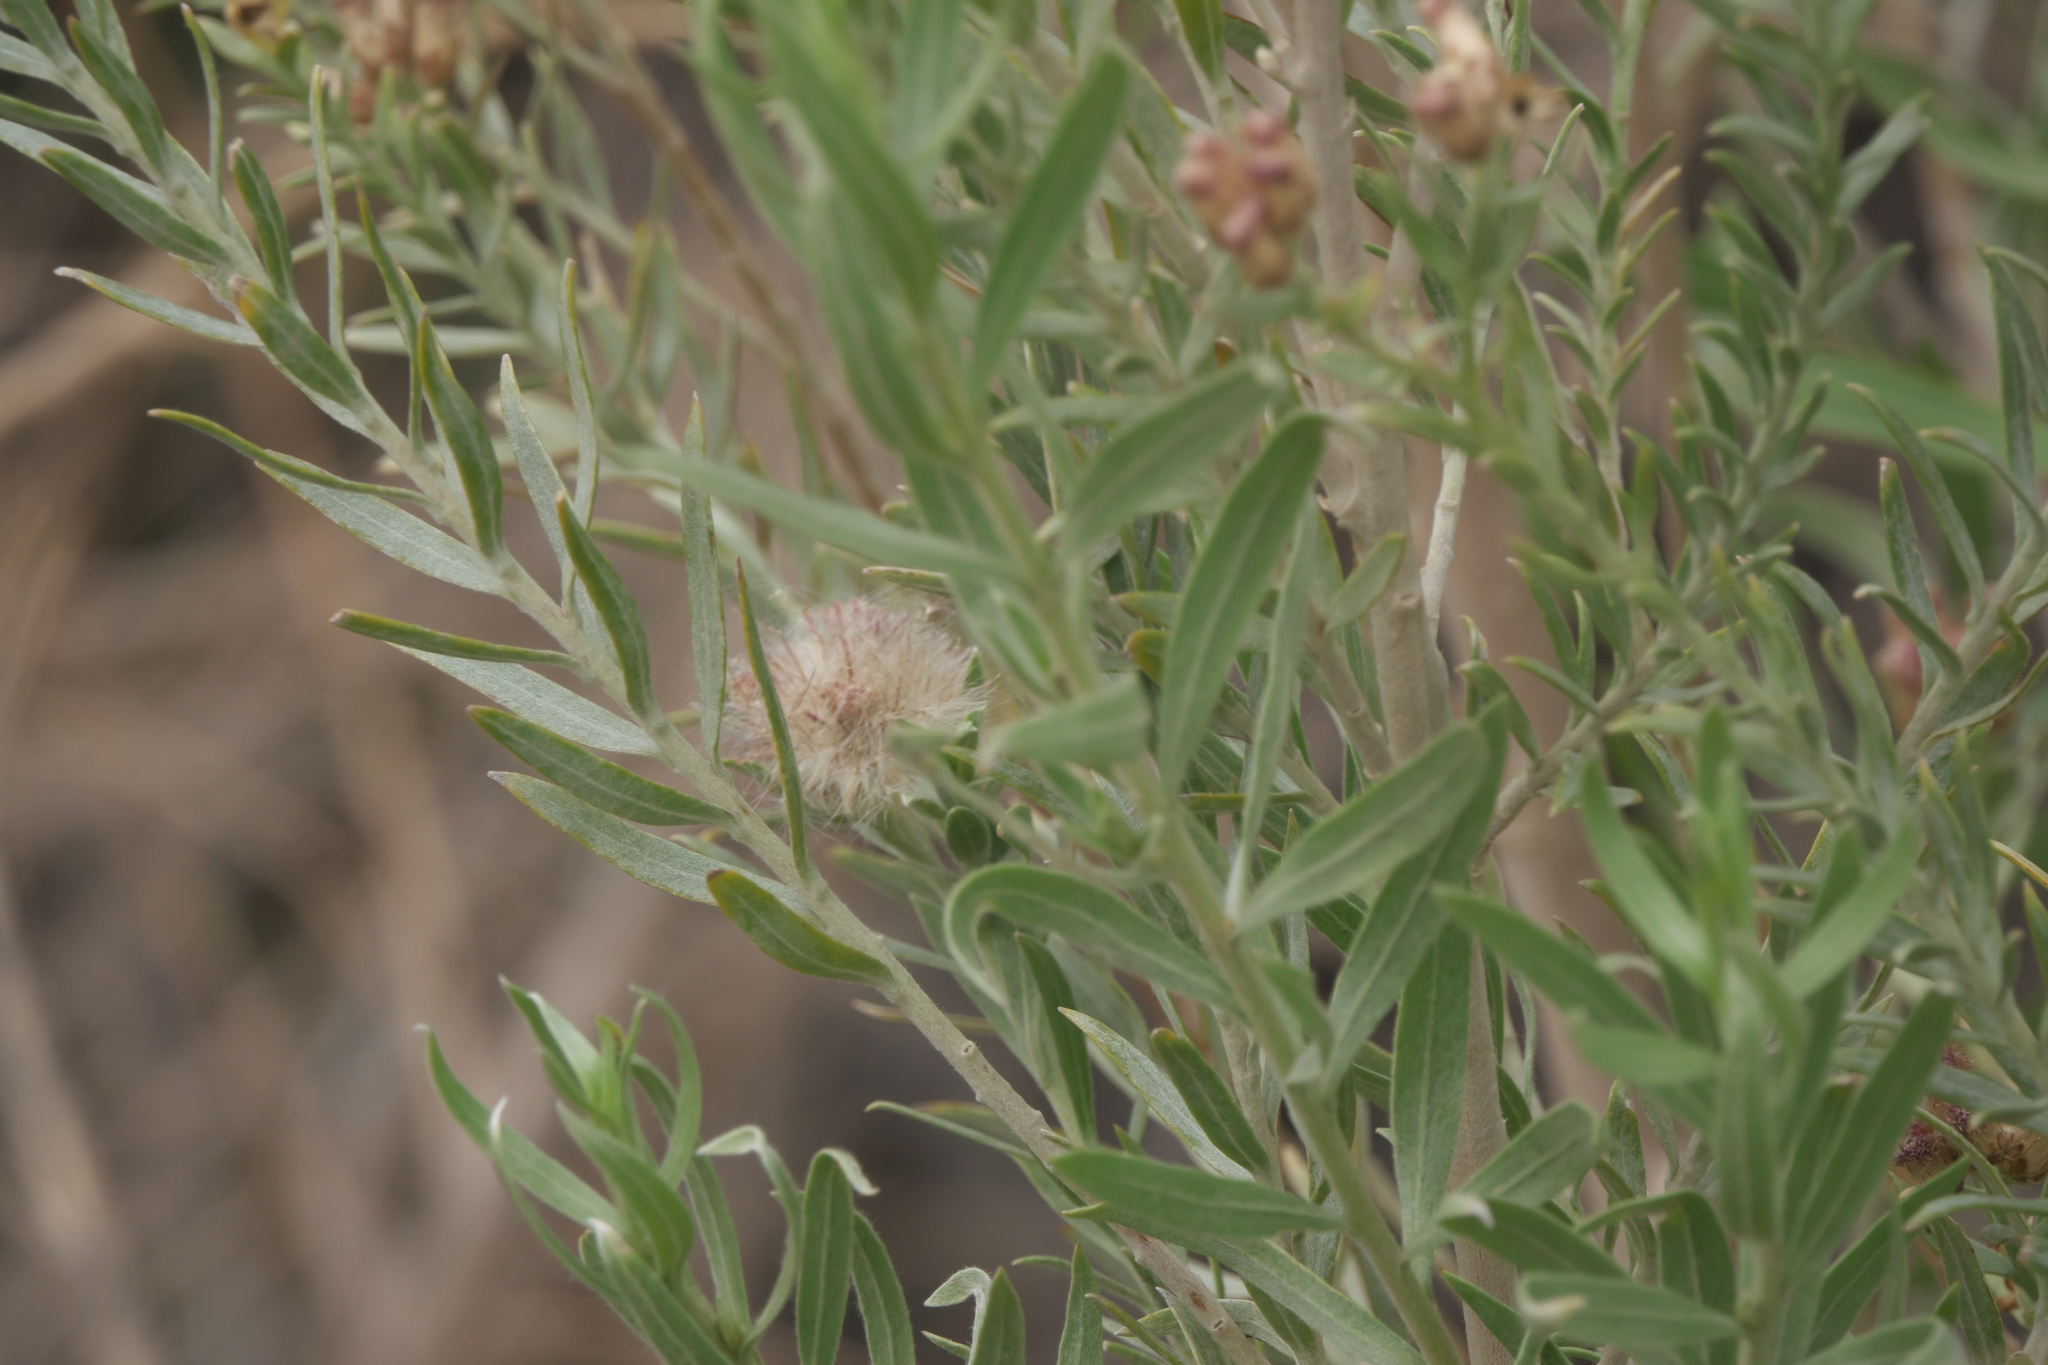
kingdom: Plantae
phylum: Tracheophyta
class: Magnoliopsida
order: Asterales
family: Asteraceae
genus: Pluchea
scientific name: Pluchea sericea
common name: Arrow-weed
